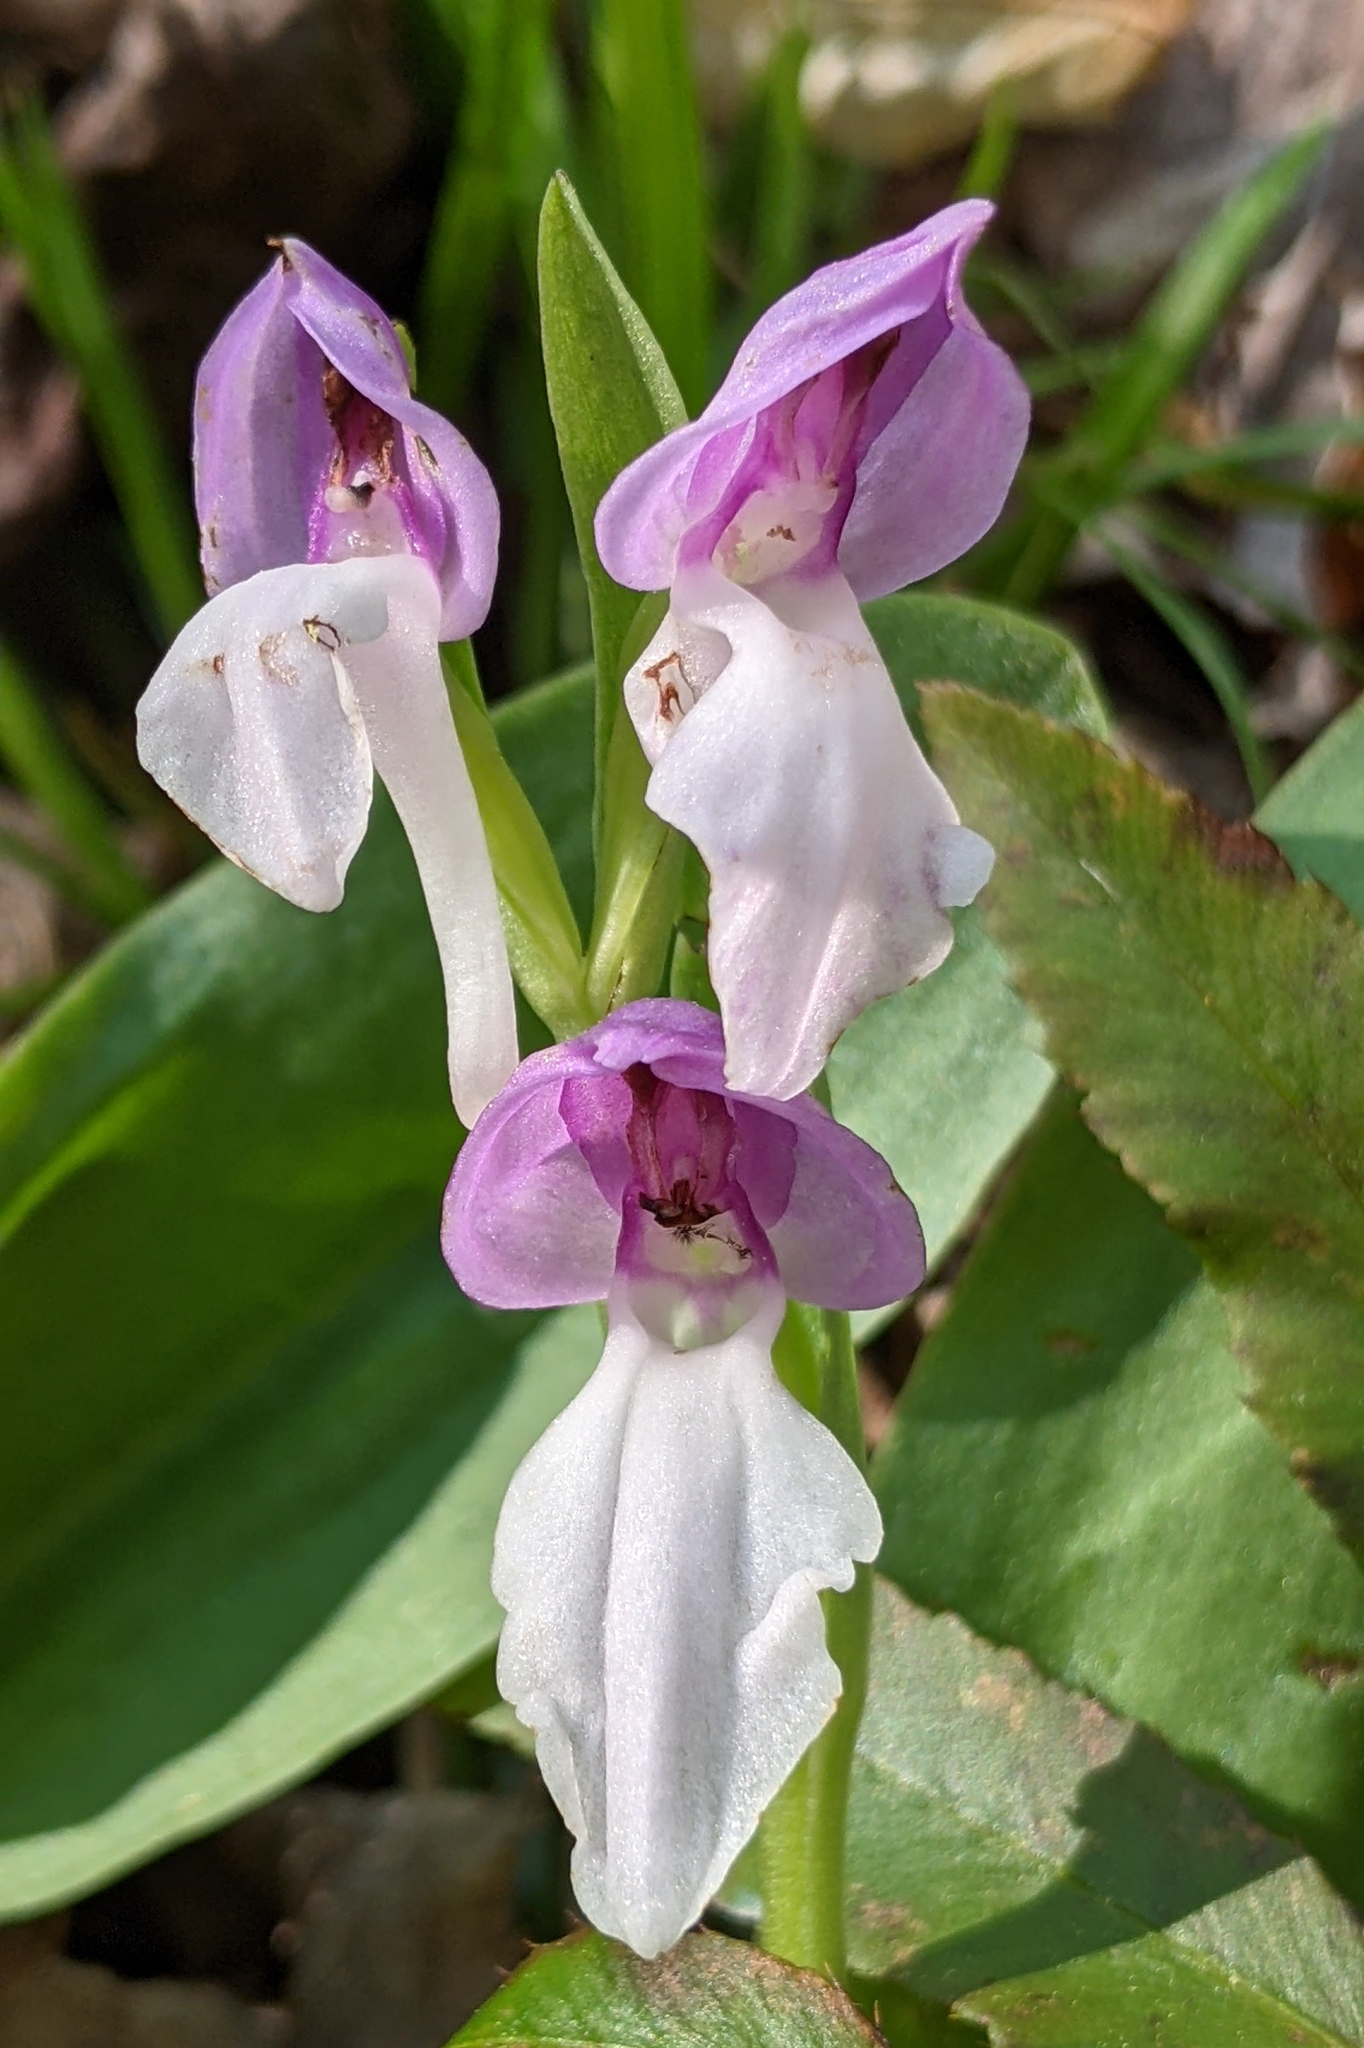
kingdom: Plantae
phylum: Tracheophyta
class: Liliopsida
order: Asparagales
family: Orchidaceae
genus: Galearis
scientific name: Galearis spectabilis
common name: Purple-hooded orchis
